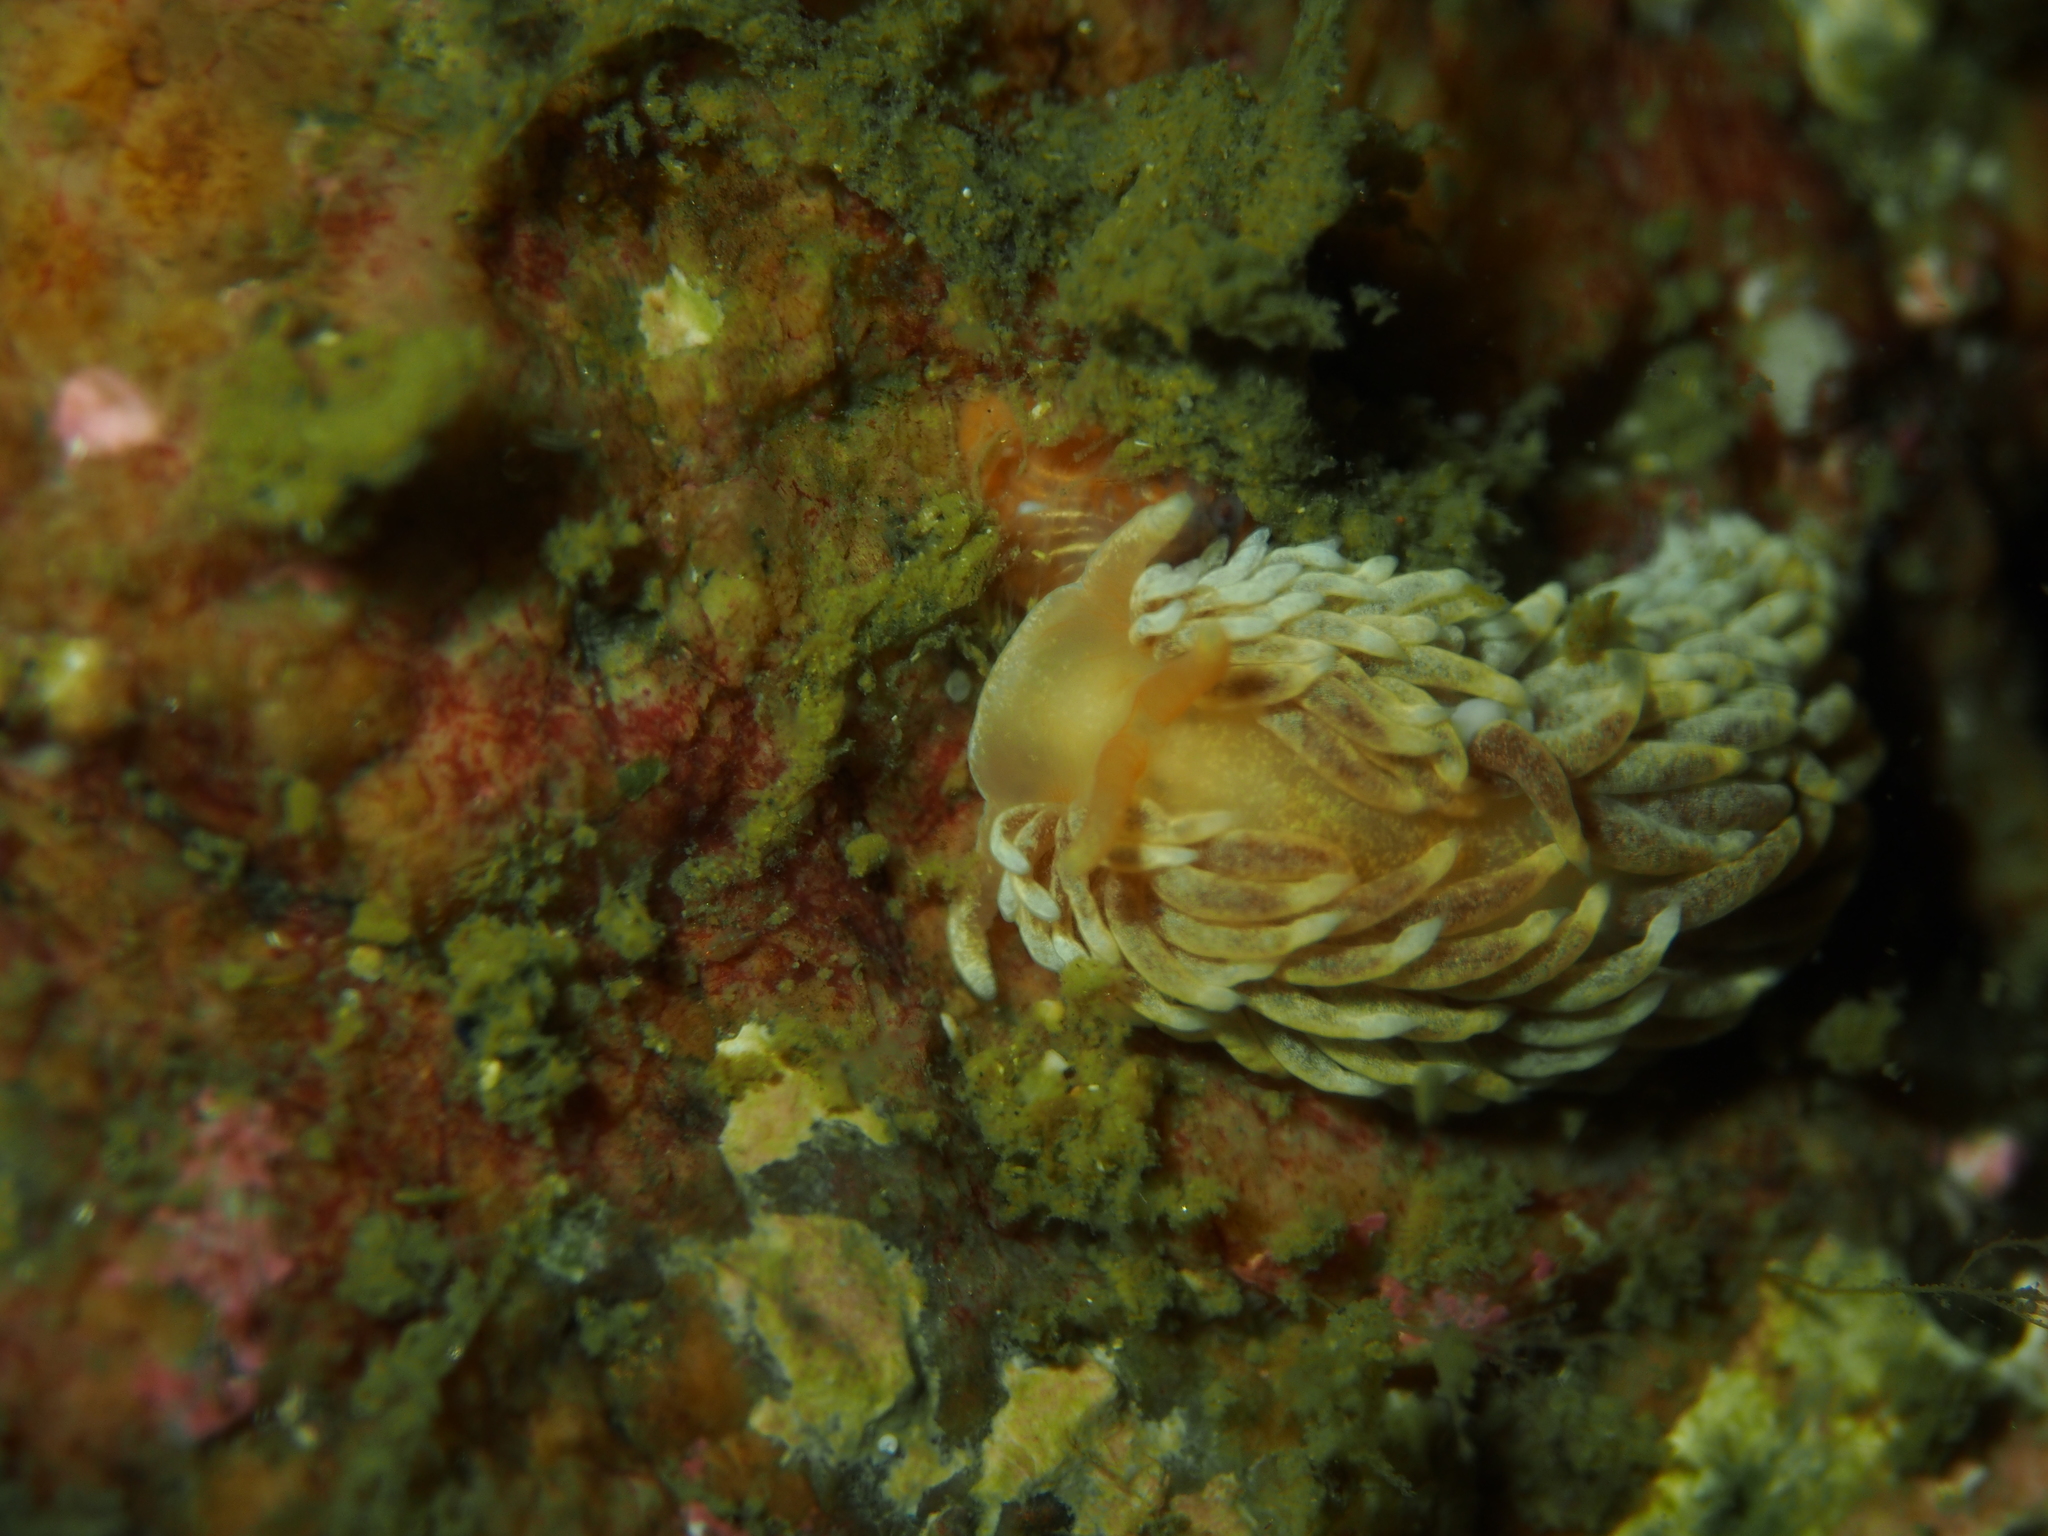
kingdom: Animalia
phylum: Mollusca
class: Gastropoda
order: Nudibranchia
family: Aeolidiidae
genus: Aeolidiella
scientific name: Aeolidiella glauca
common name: Orange-brown aeolid
